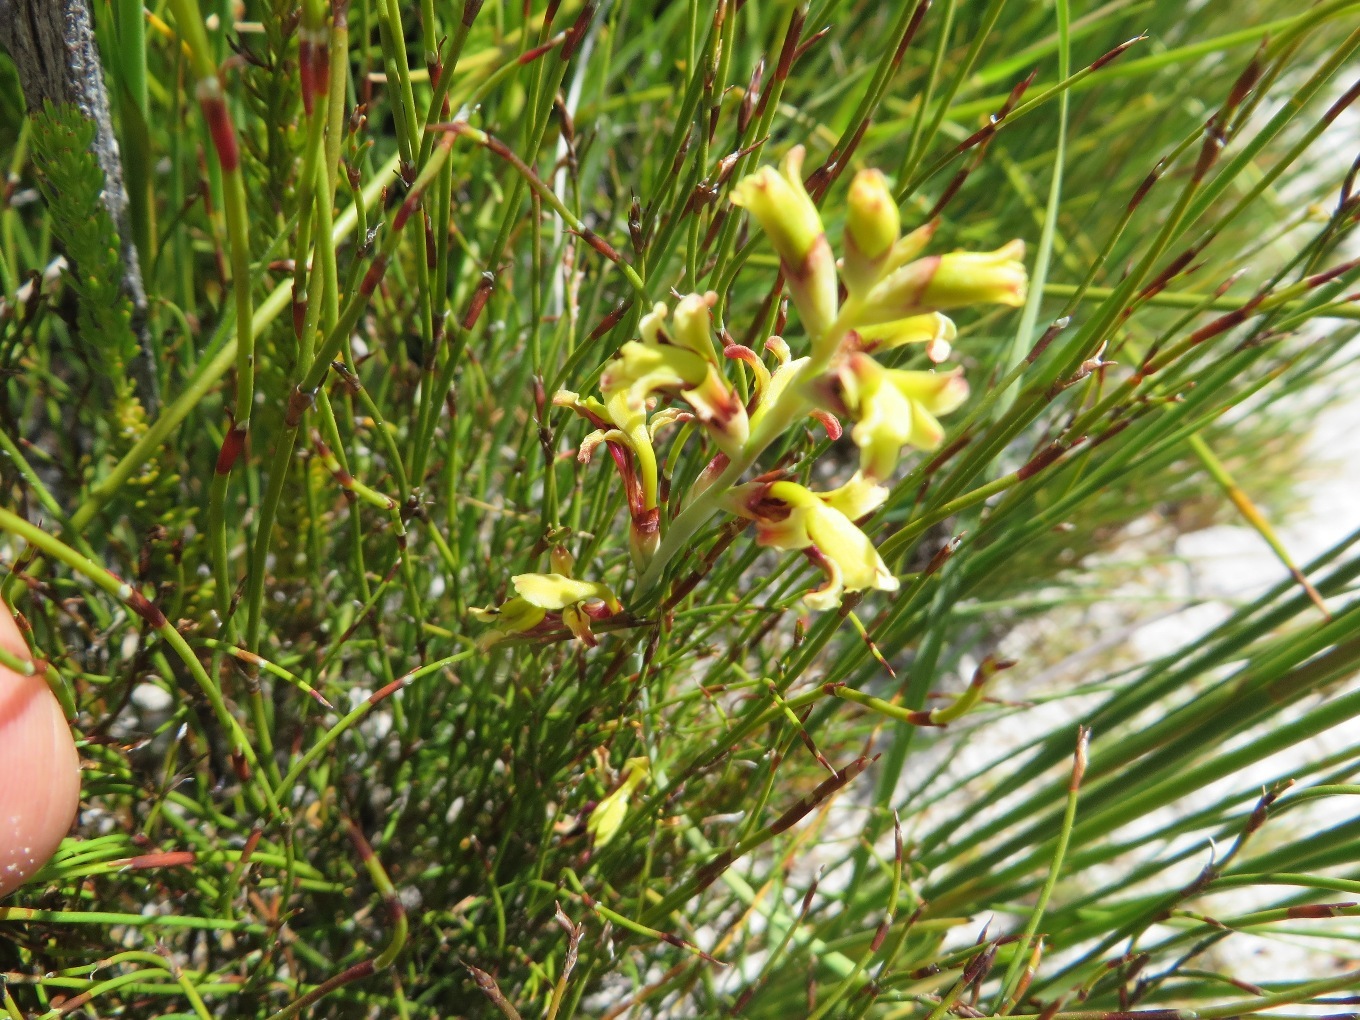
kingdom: Plantae
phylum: Tracheophyta
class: Liliopsida
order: Asparagales
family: Iridaceae
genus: Tritoniopsis
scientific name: Tritoniopsis parviflora
